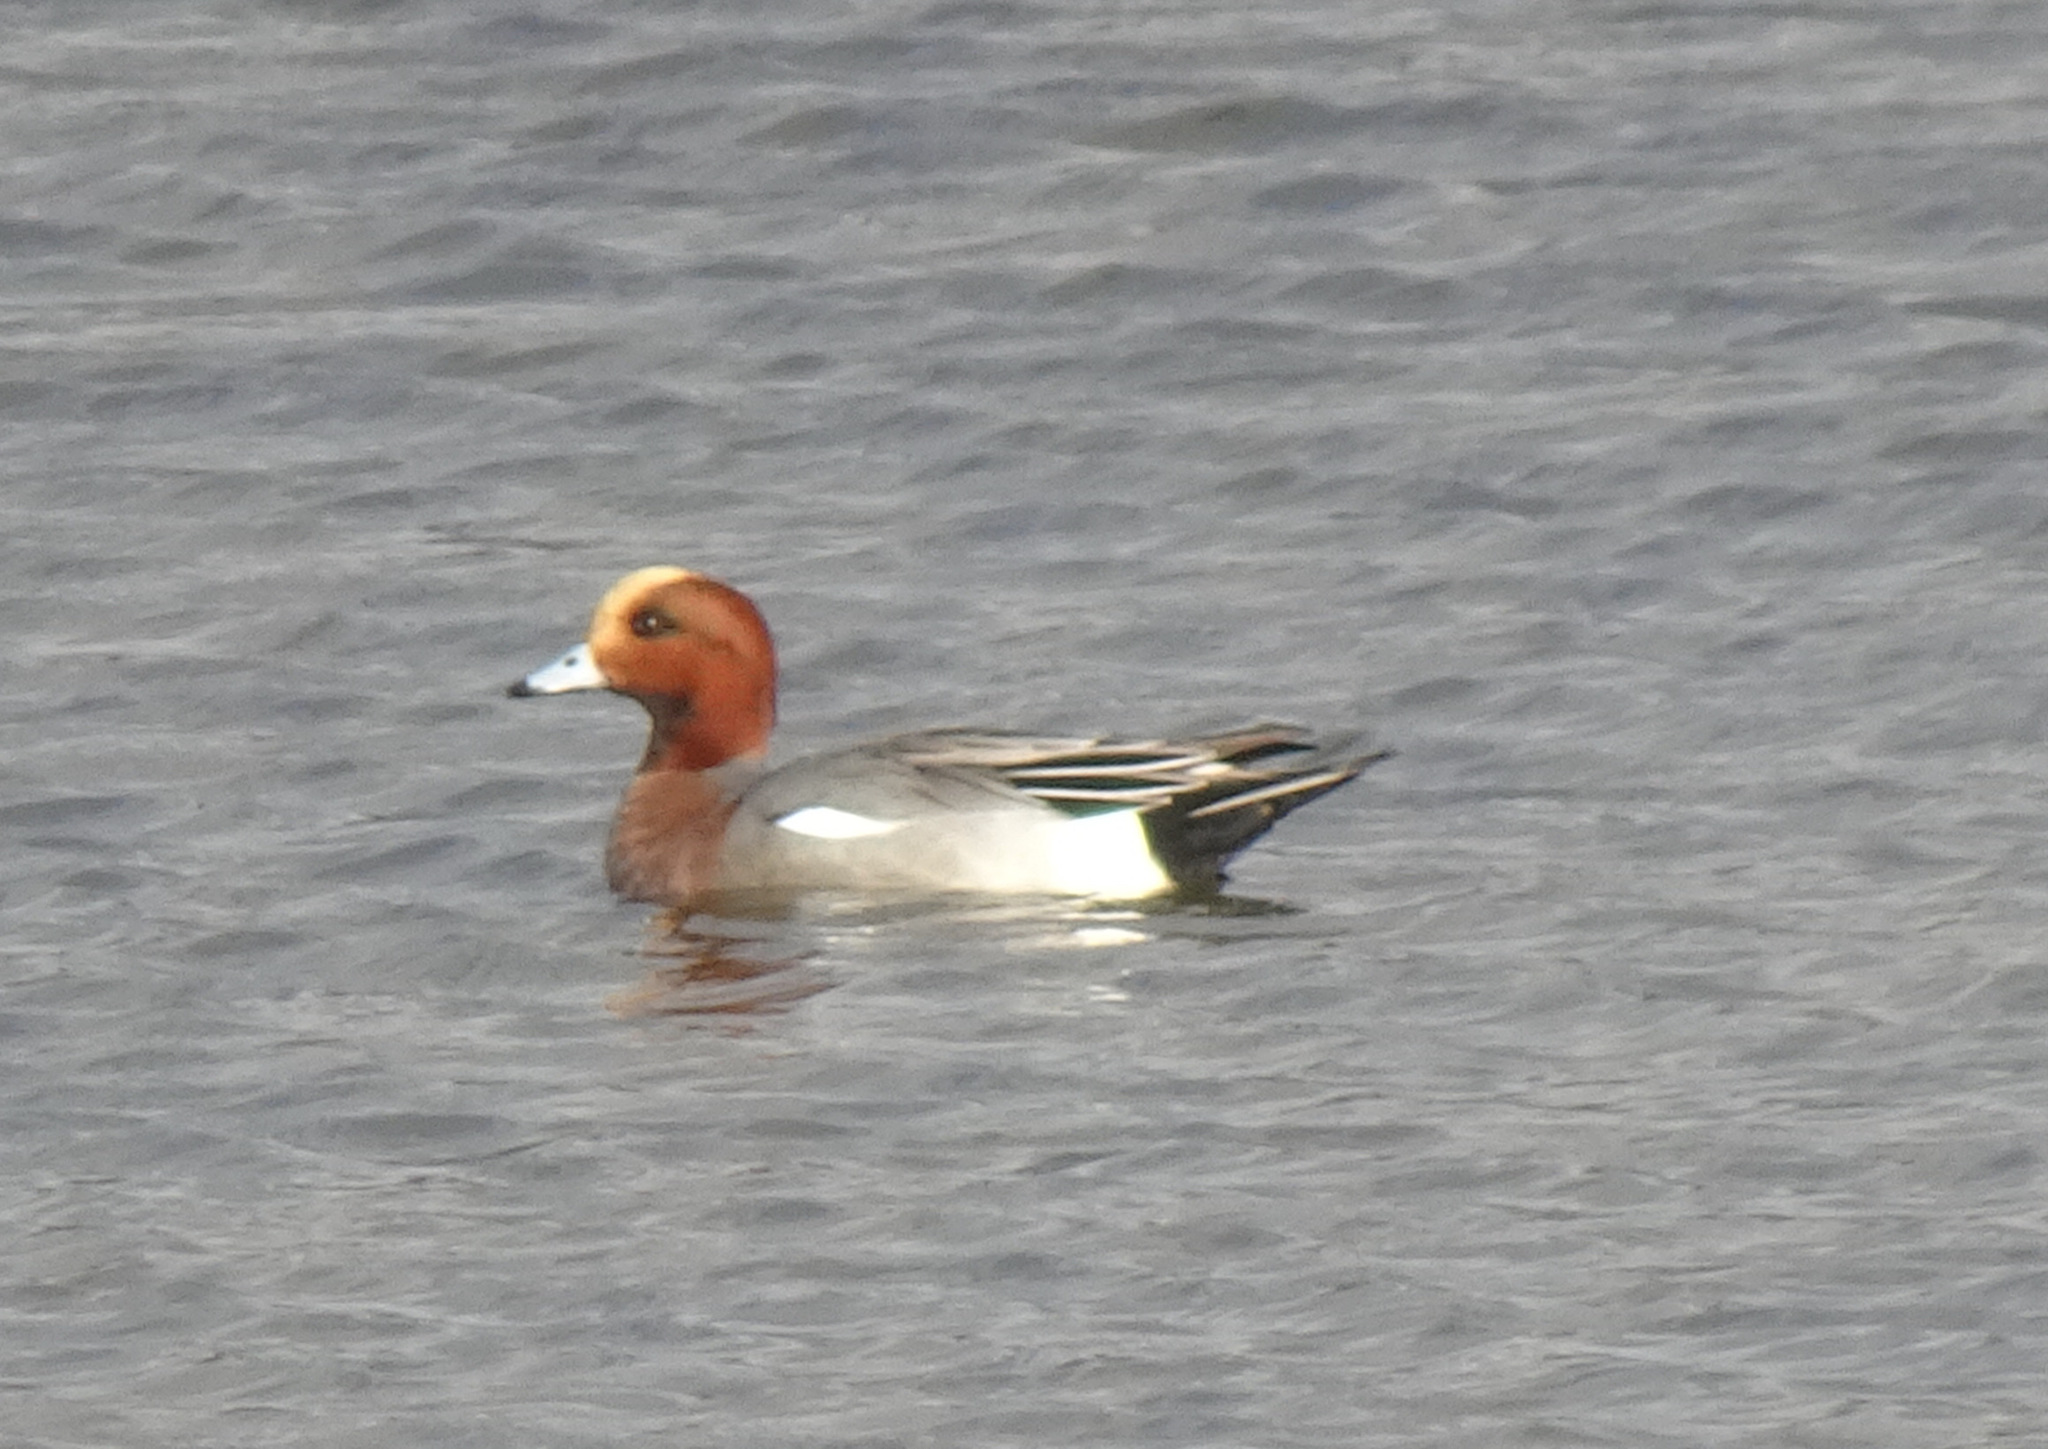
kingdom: Animalia
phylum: Chordata
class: Aves
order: Anseriformes
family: Anatidae
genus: Mareca
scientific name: Mareca penelope
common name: Eurasian wigeon
